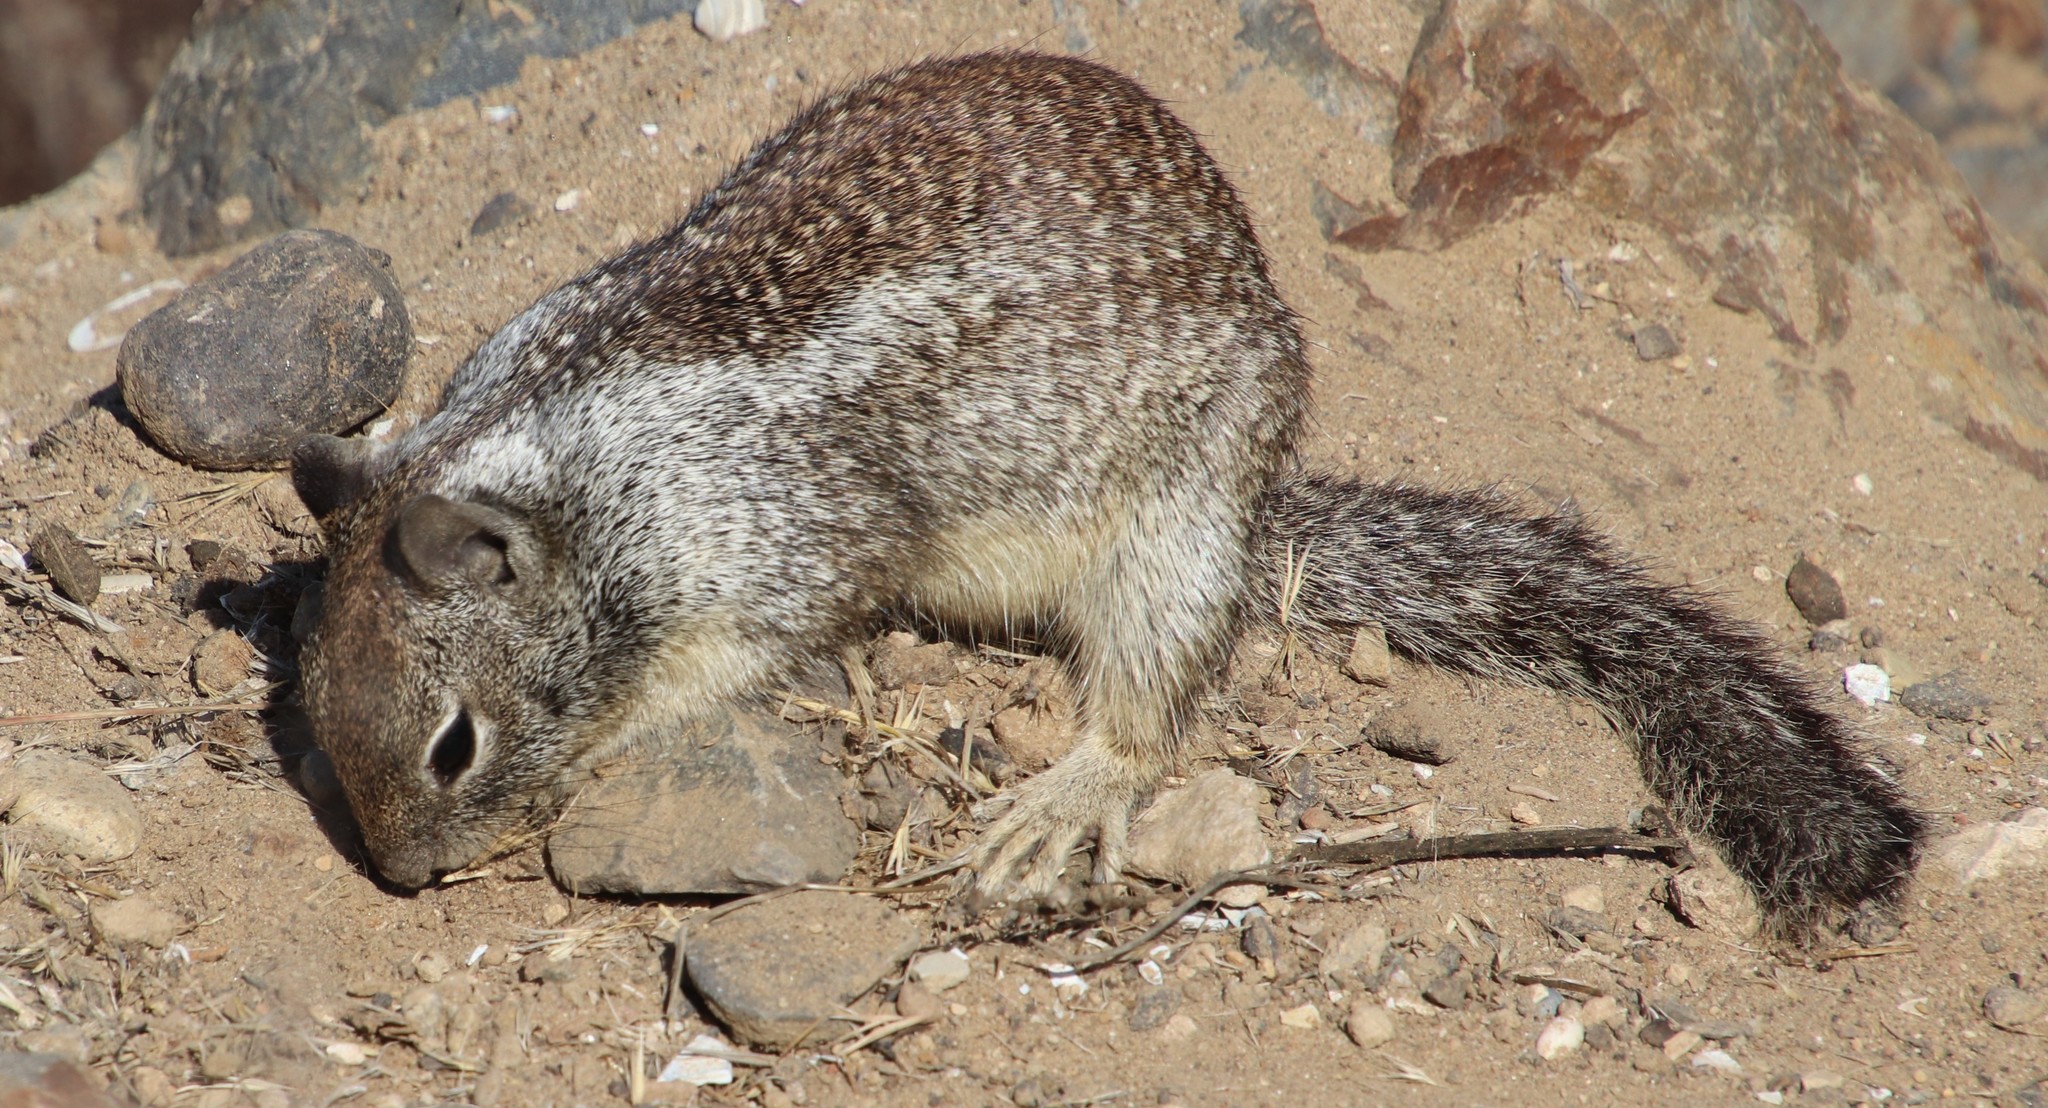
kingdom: Animalia
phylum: Chordata
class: Mammalia
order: Rodentia
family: Sciuridae
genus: Otospermophilus
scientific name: Otospermophilus beecheyi
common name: California ground squirrel
